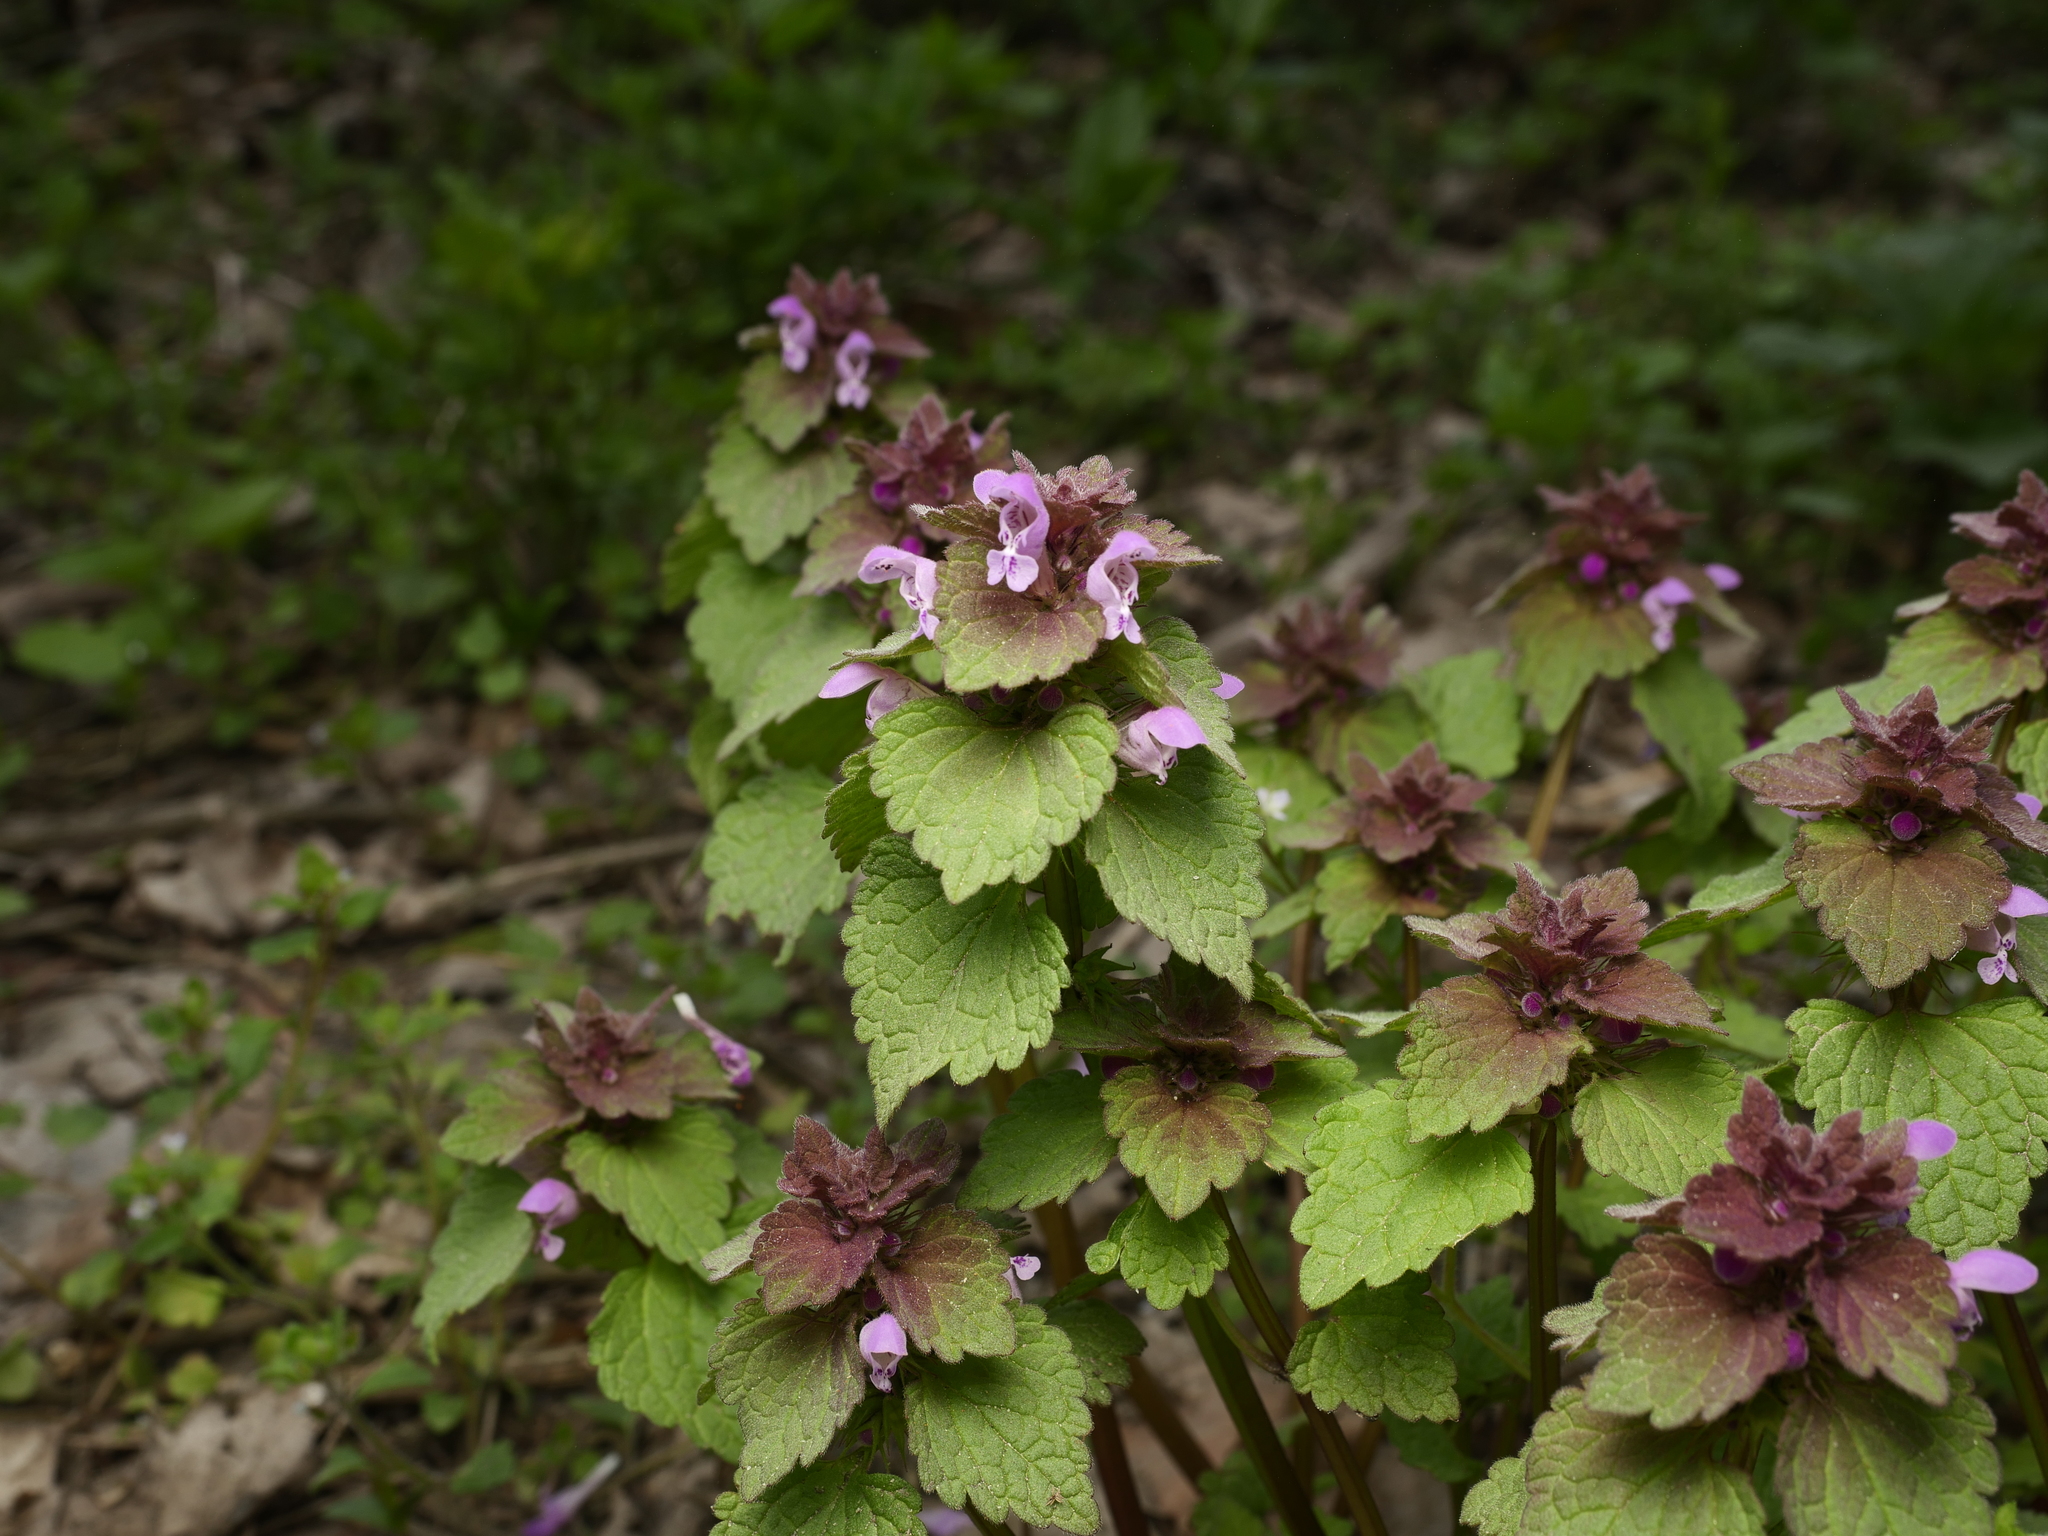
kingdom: Plantae
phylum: Tracheophyta
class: Magnoliopsida
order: Lamiales
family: Lamiaceae
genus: Lamium
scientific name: Lamium purpureum
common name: Red dead-nettle
